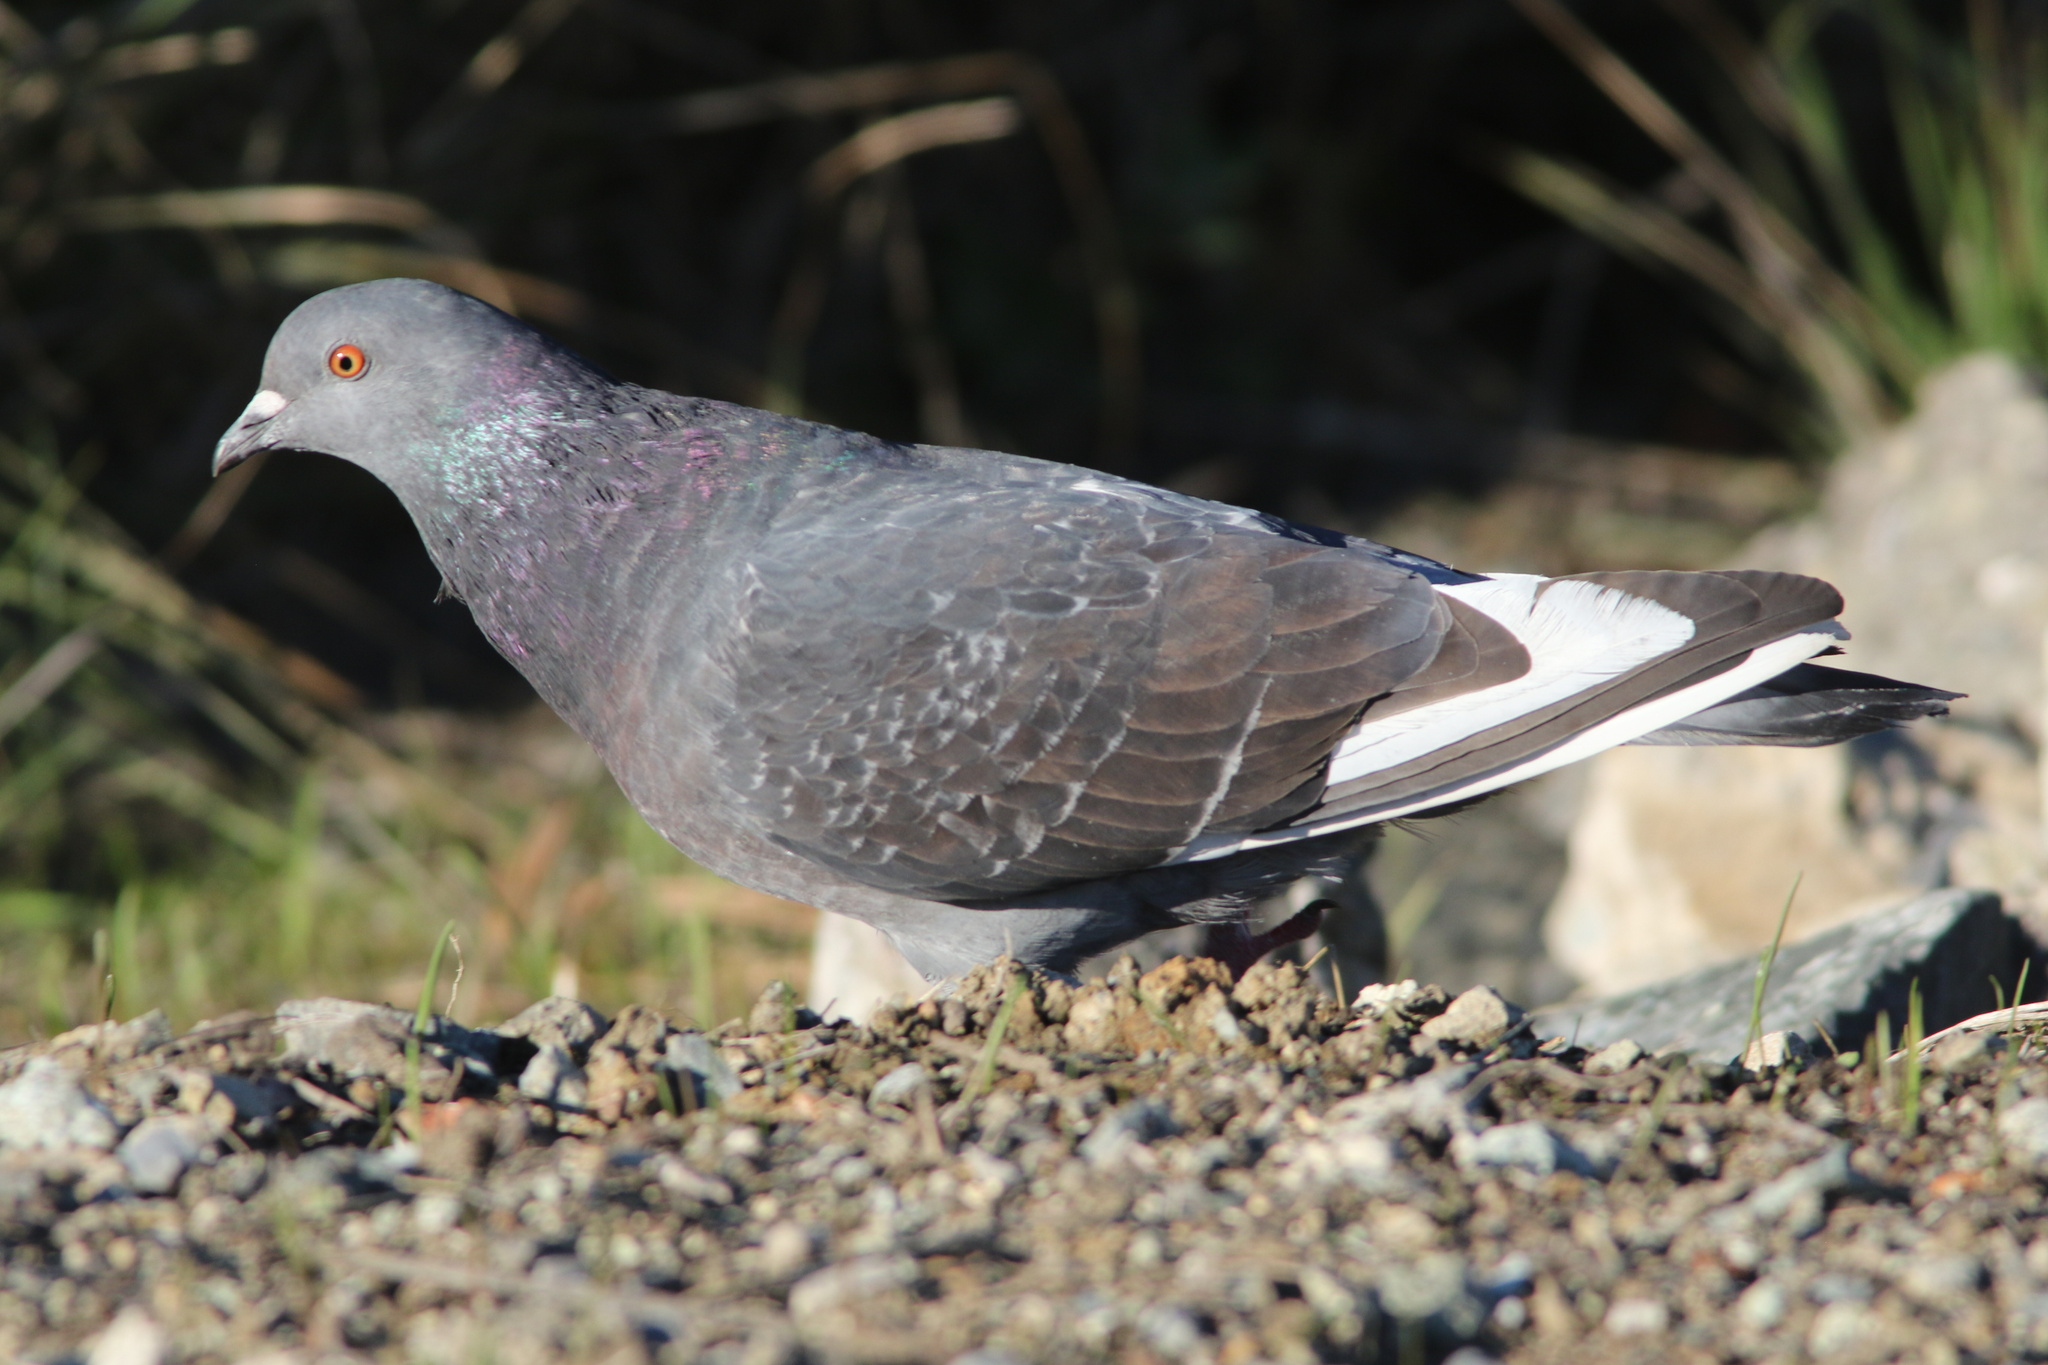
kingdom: Animalia
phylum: Chordata
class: Aves
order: Columbiformes
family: Columbidae
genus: Columba
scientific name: Columba livia
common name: Rock pigeon
